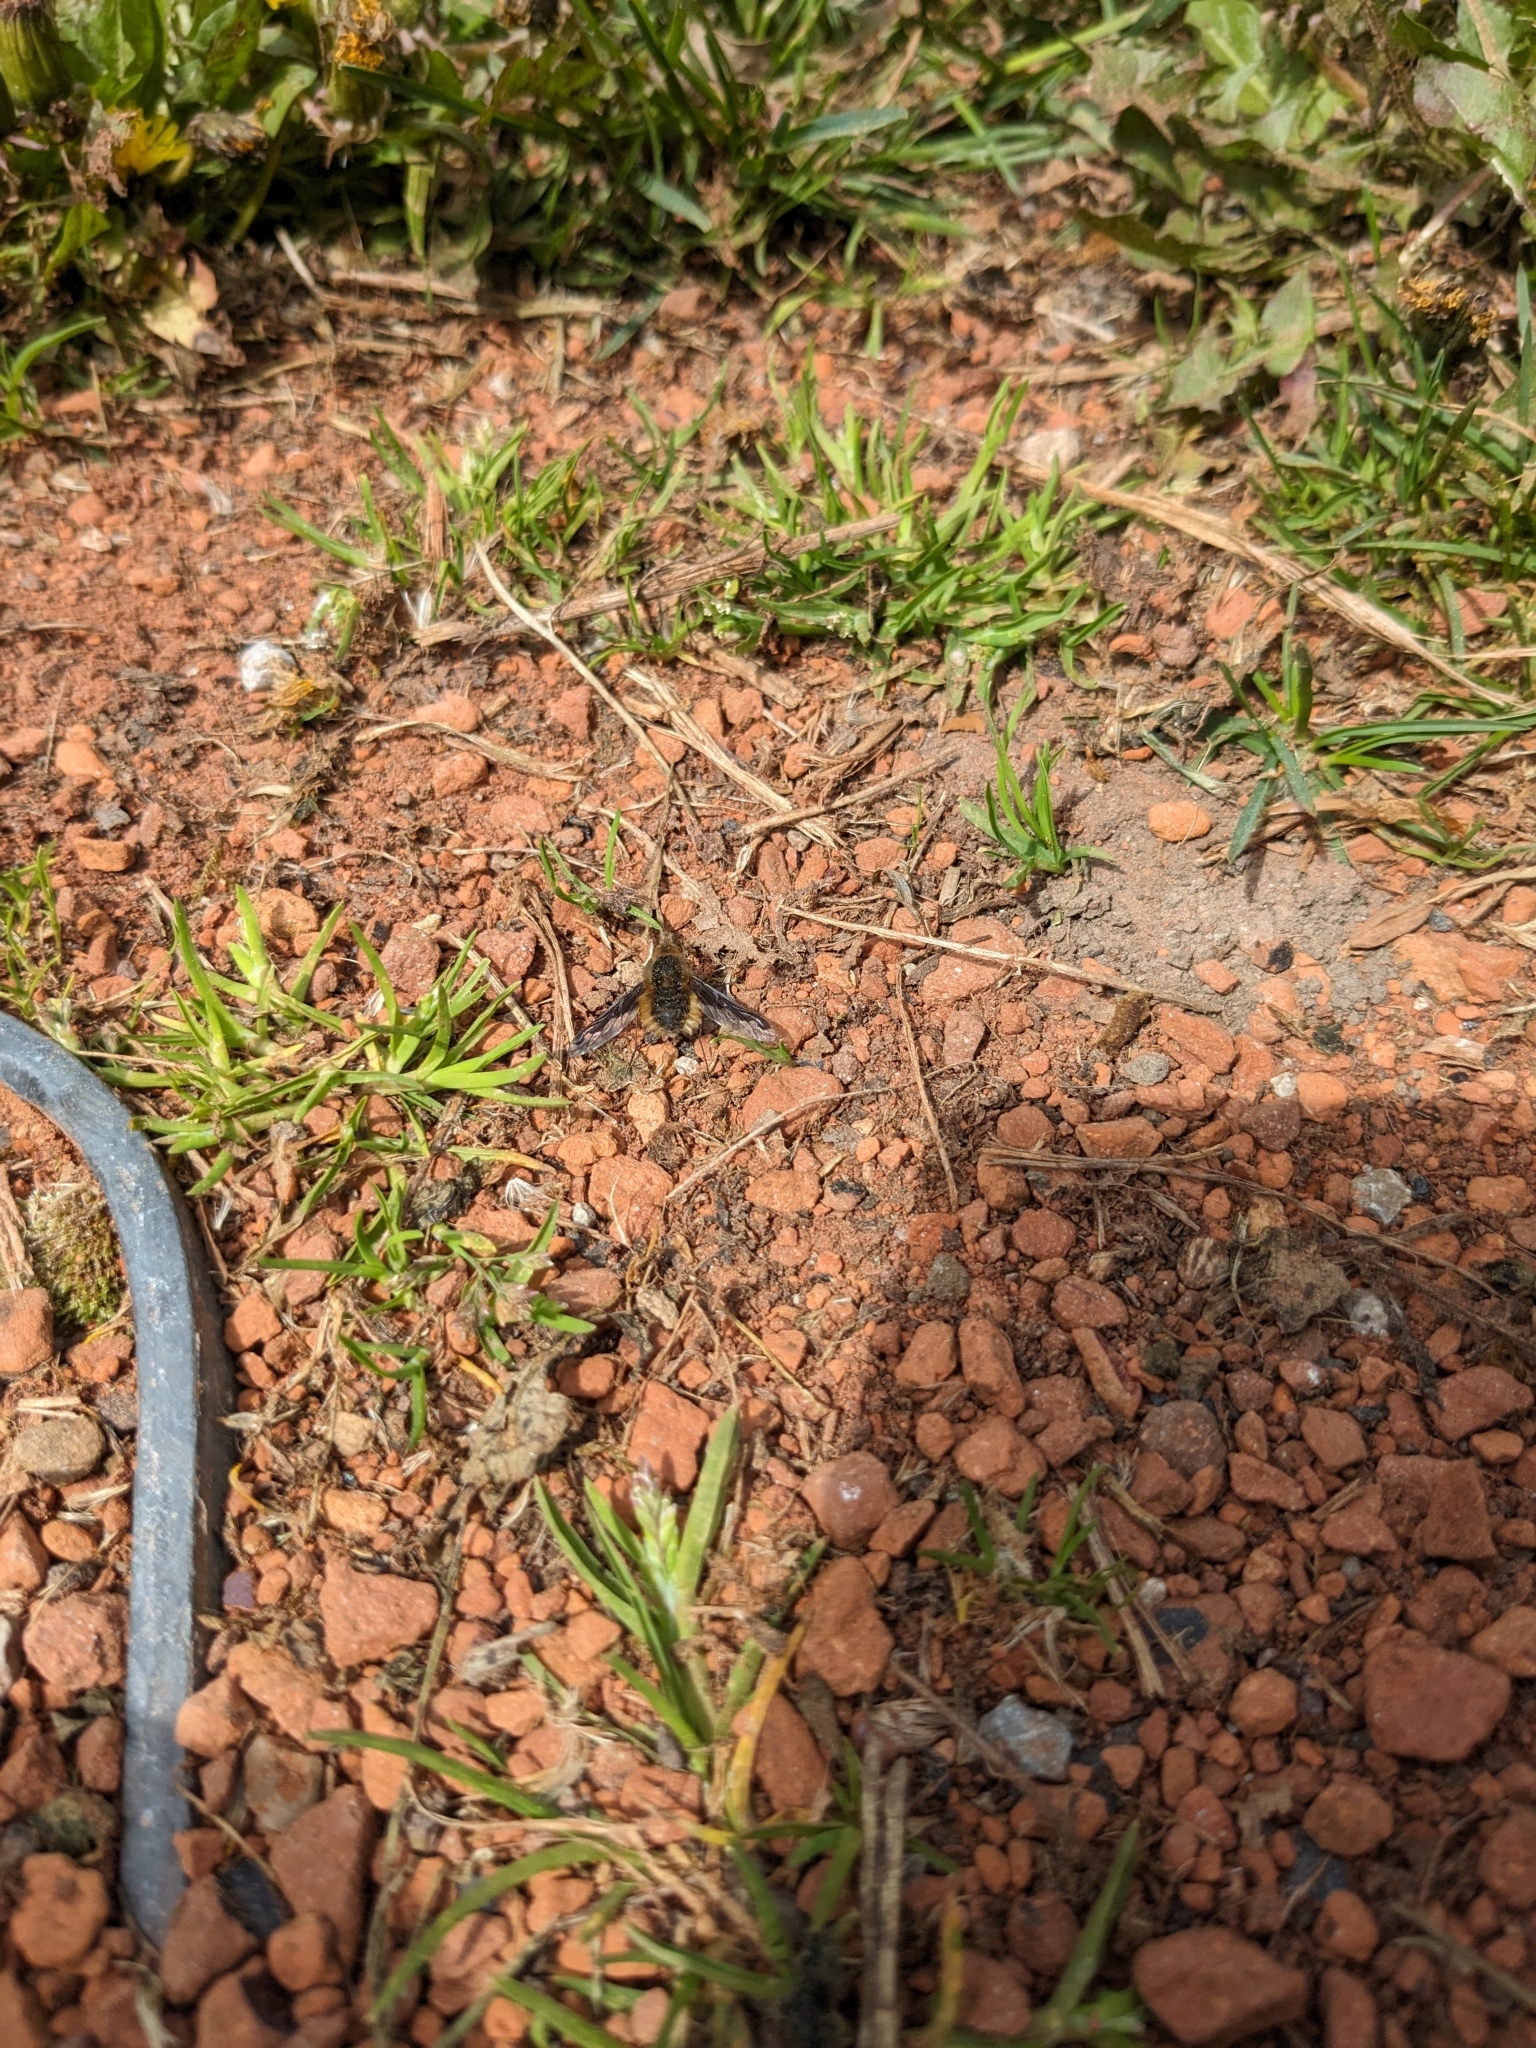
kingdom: Animalia
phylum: Arthropoda
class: Insecta
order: Diptera
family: Bombyliidae
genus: Bombylius
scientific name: Bombylius major
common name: Bee fly
